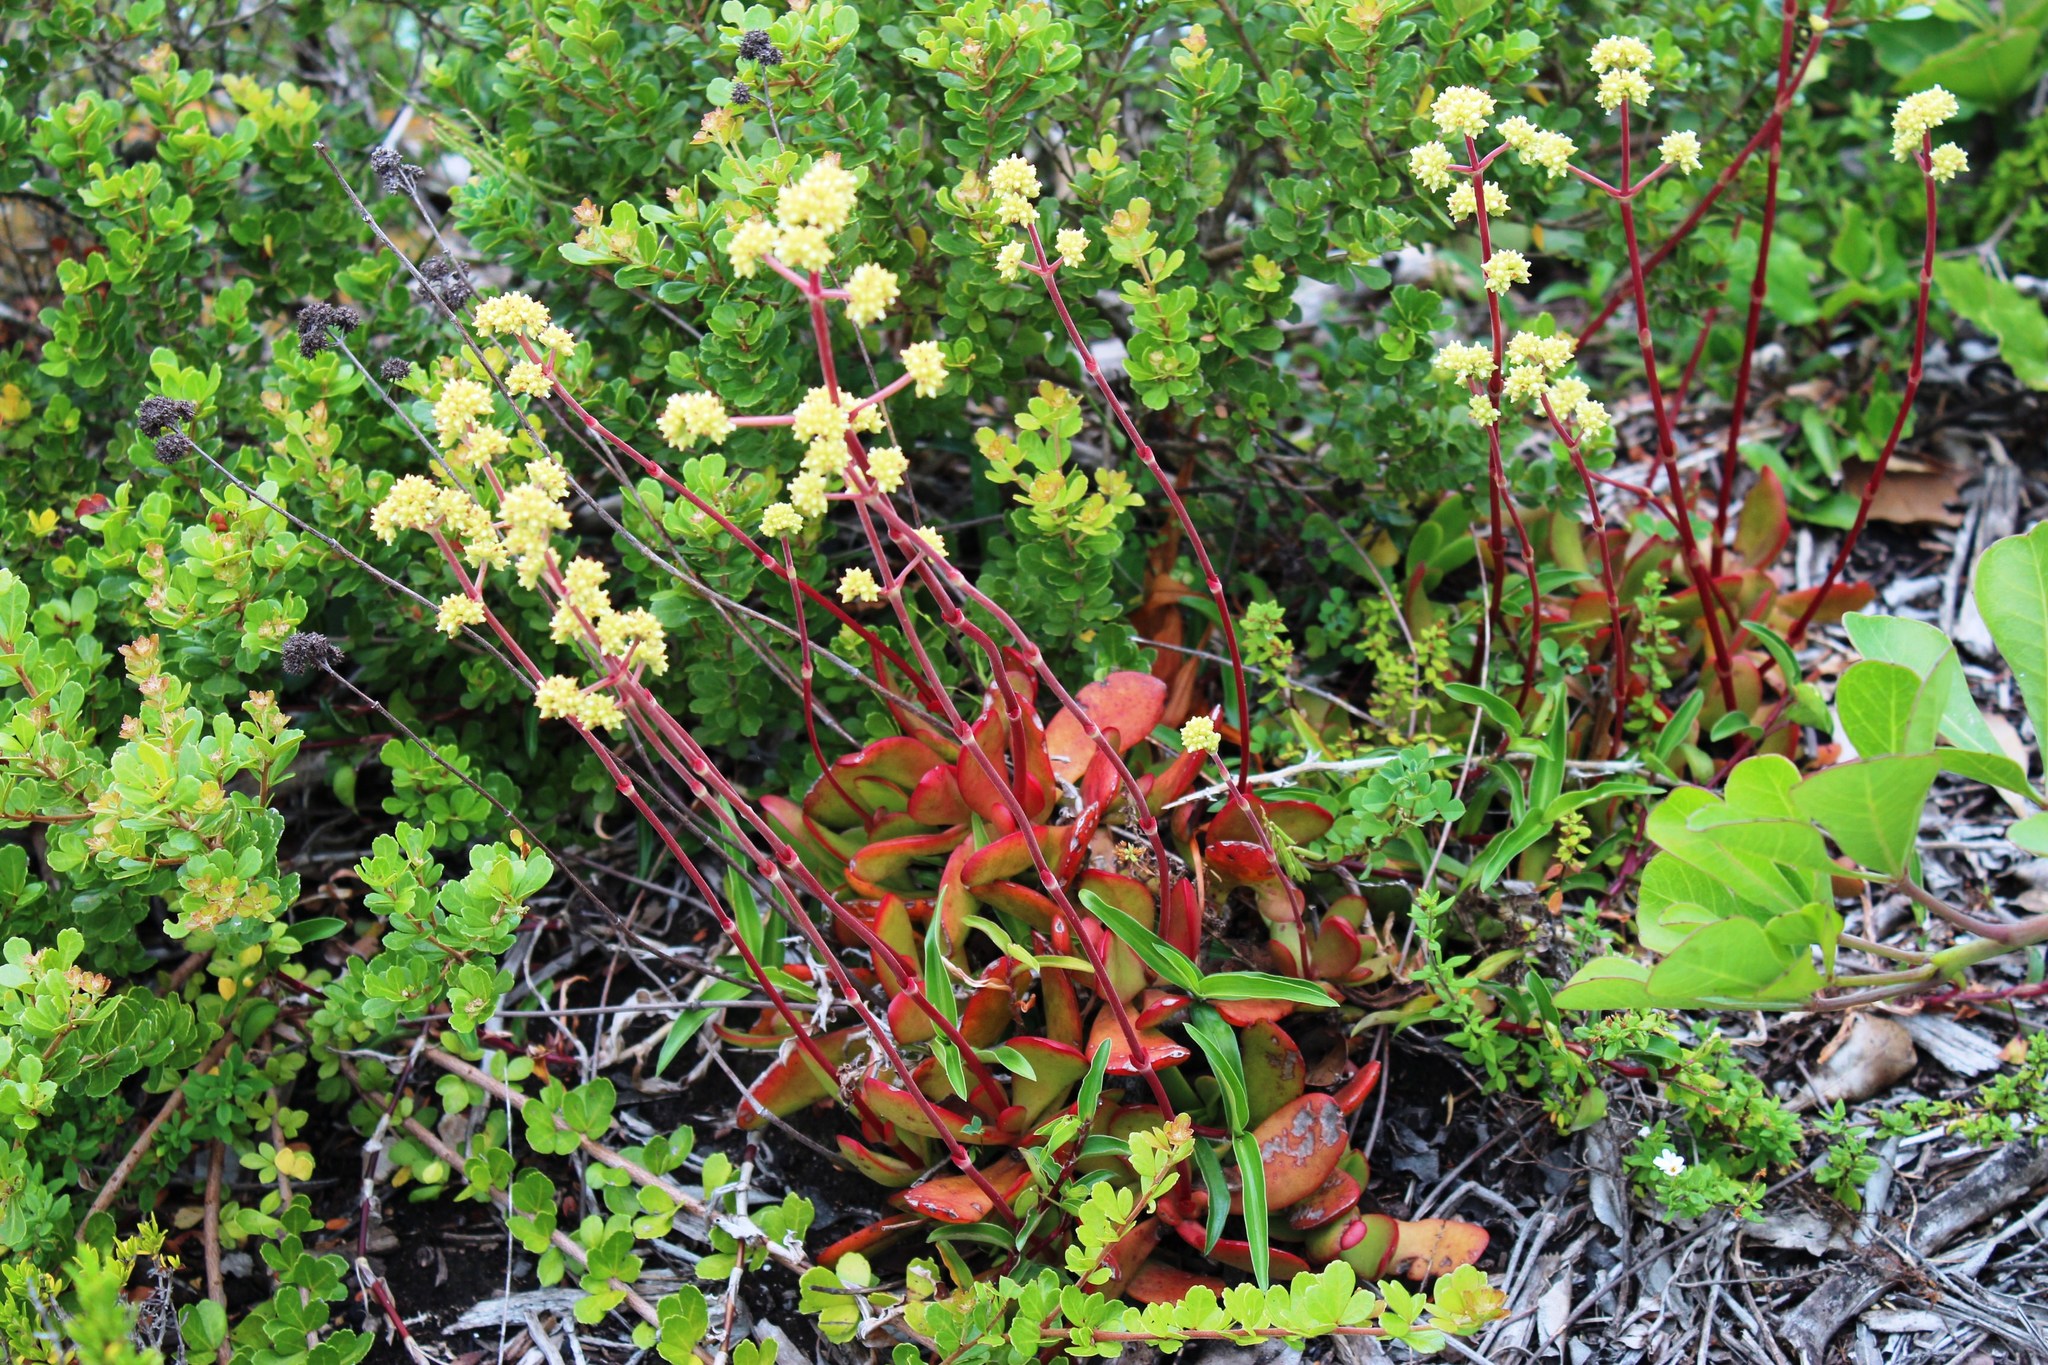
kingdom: Plantae
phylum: Tracheophyta
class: Magnoliopsida
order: Saxifragales
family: Crassulaceae
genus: Crassula
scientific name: Crassula atropurpurea
